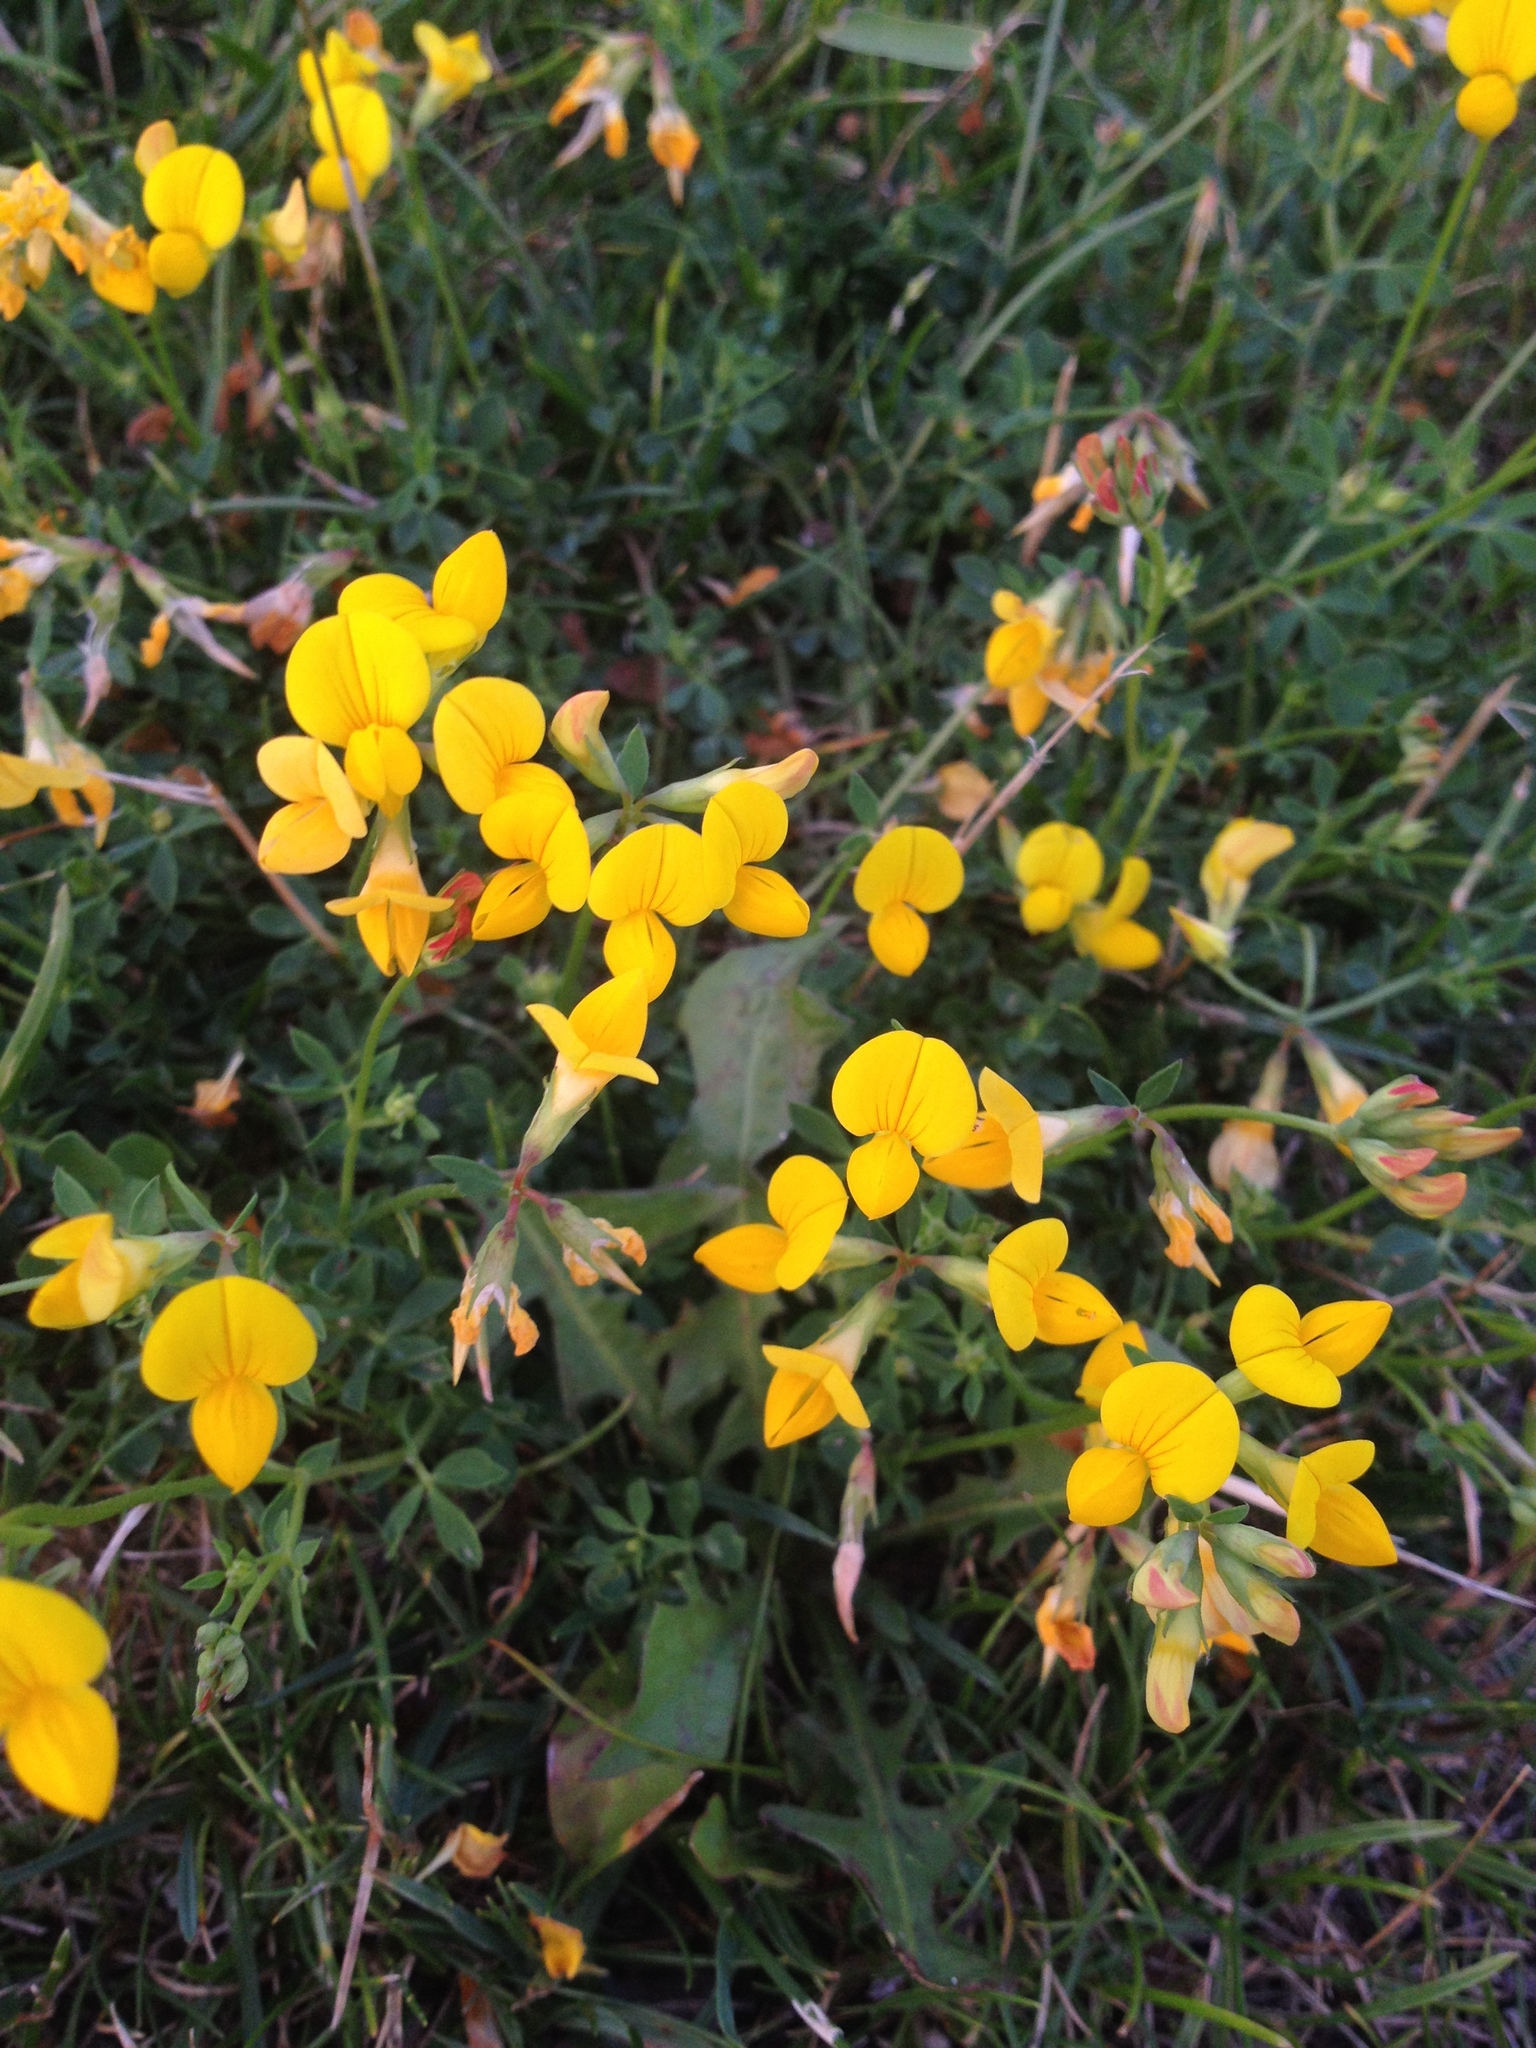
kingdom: Plantae
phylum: Tracheophyta
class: Magnoliopsida
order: Fabales
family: Fabaceae
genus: Lotus
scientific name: Lotus corniculatus
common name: Common bird's-foot-trefoil
